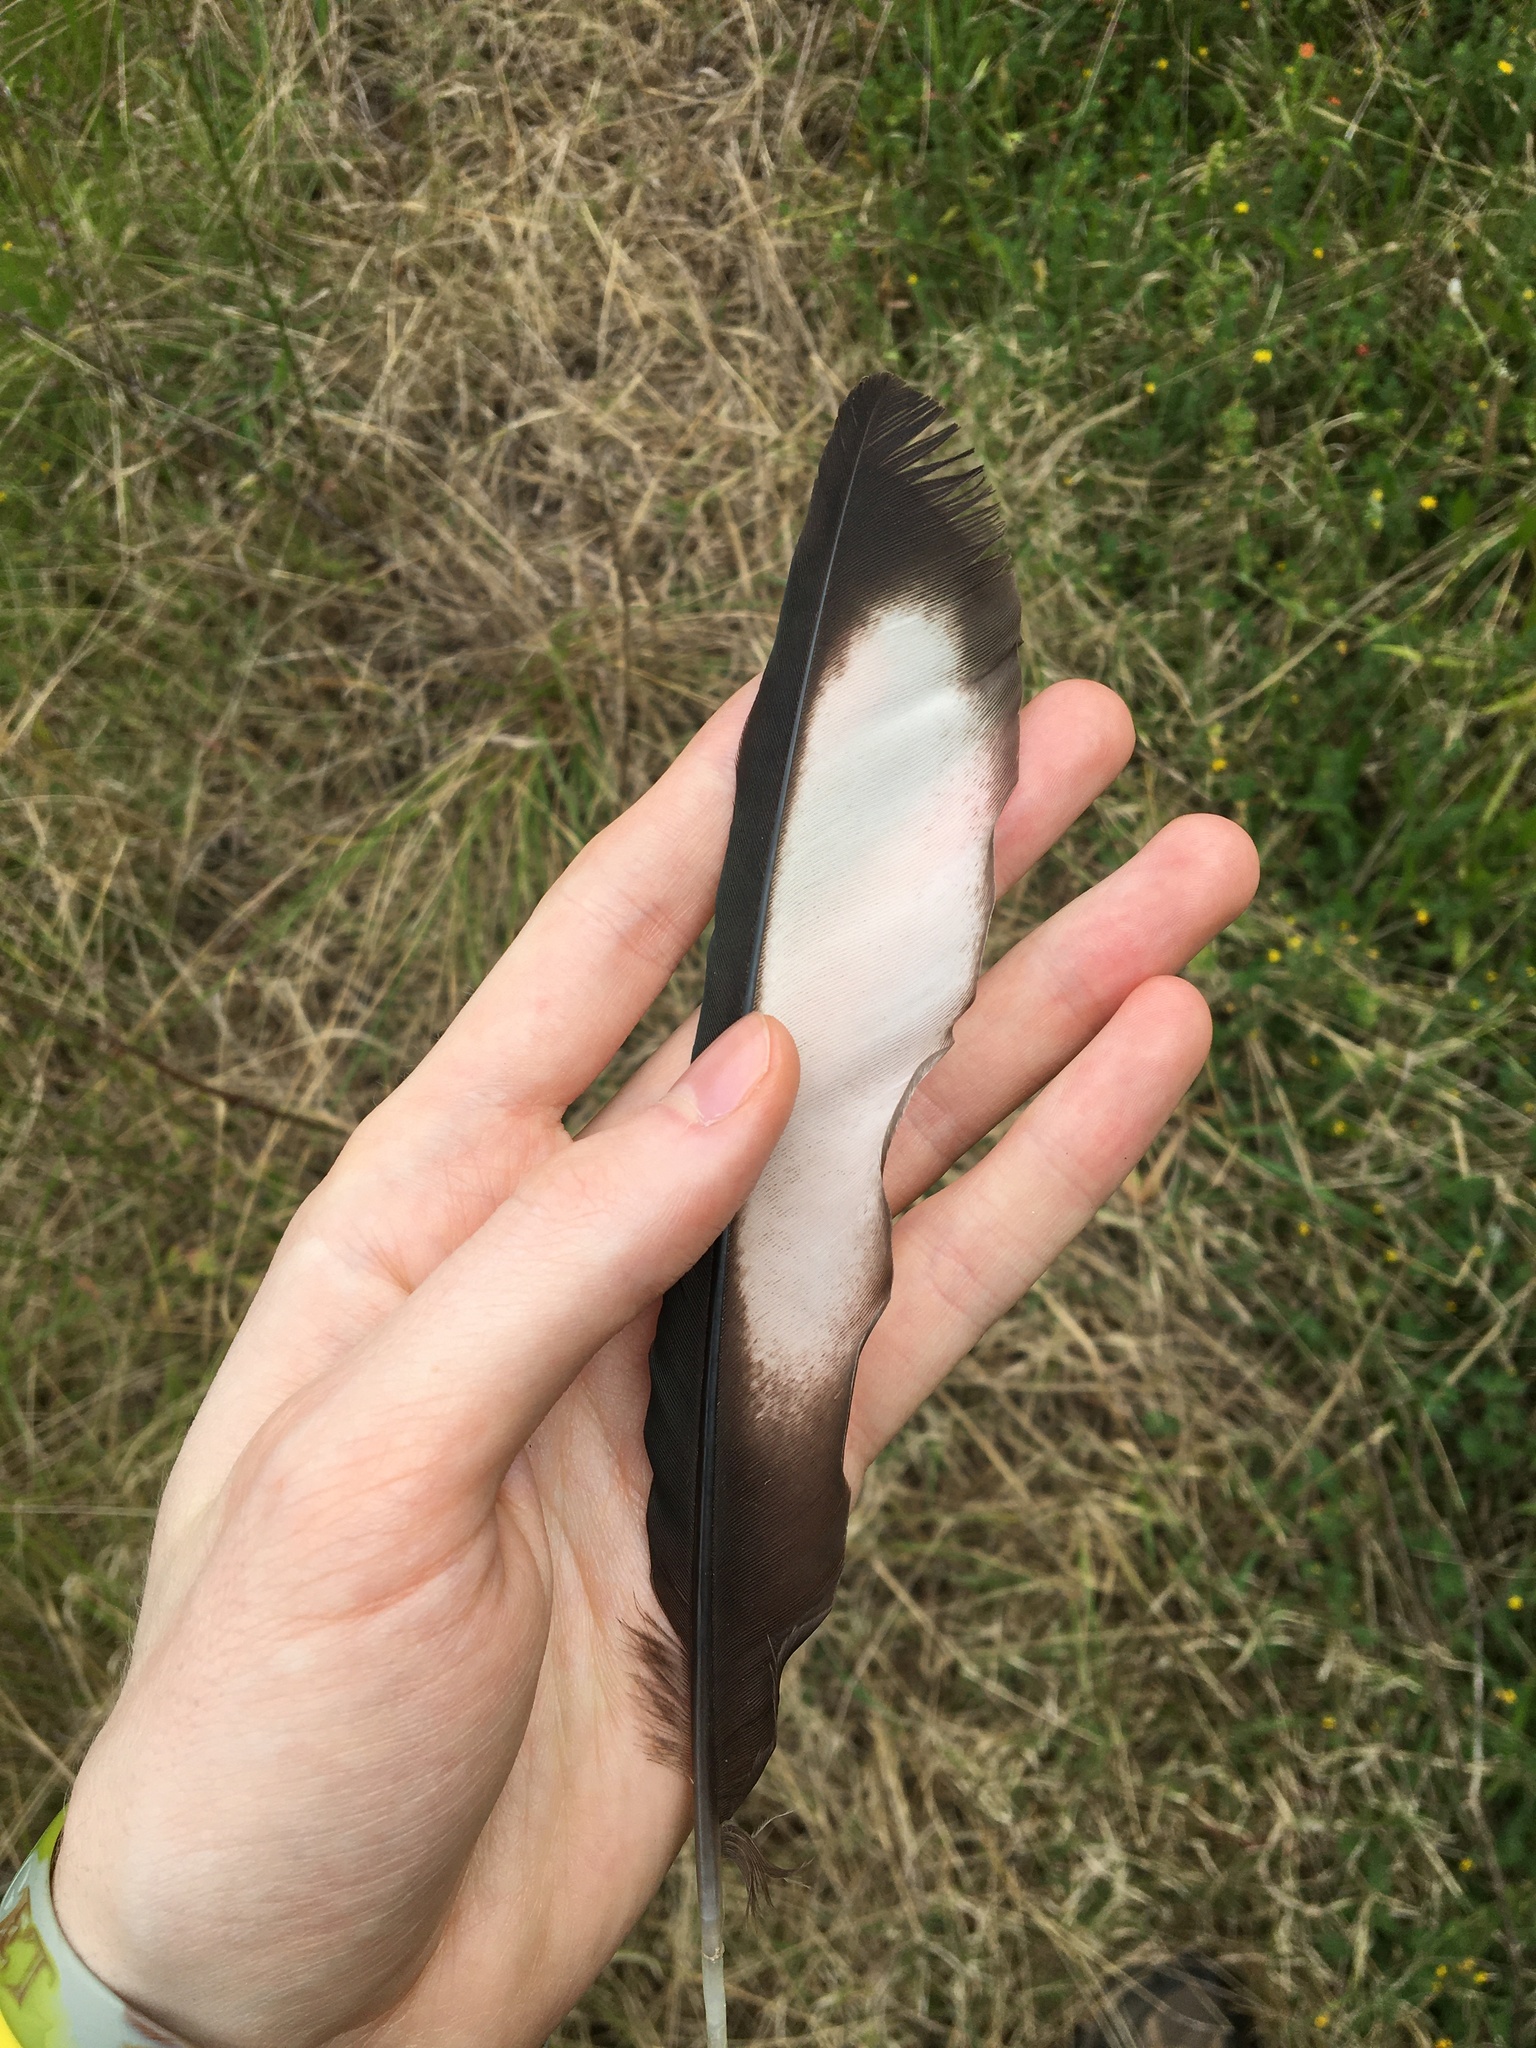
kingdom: Animalia
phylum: Chordata
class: Aves
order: Passeriformes
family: Corcoracidae
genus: Corcorax
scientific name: Corcorax melanoramphos
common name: White-winged chough
